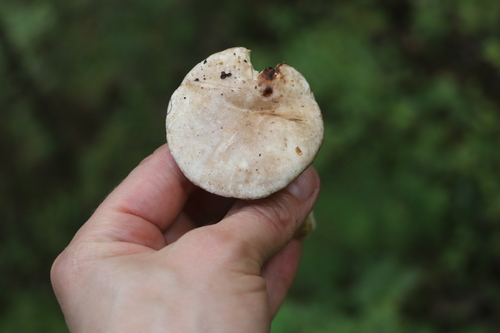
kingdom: Fungi
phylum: Basidiomycota
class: Agaricomycetes
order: Boletales
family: Suillaceae
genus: Suillus
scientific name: Suillus placidus
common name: Slippery white bolete
